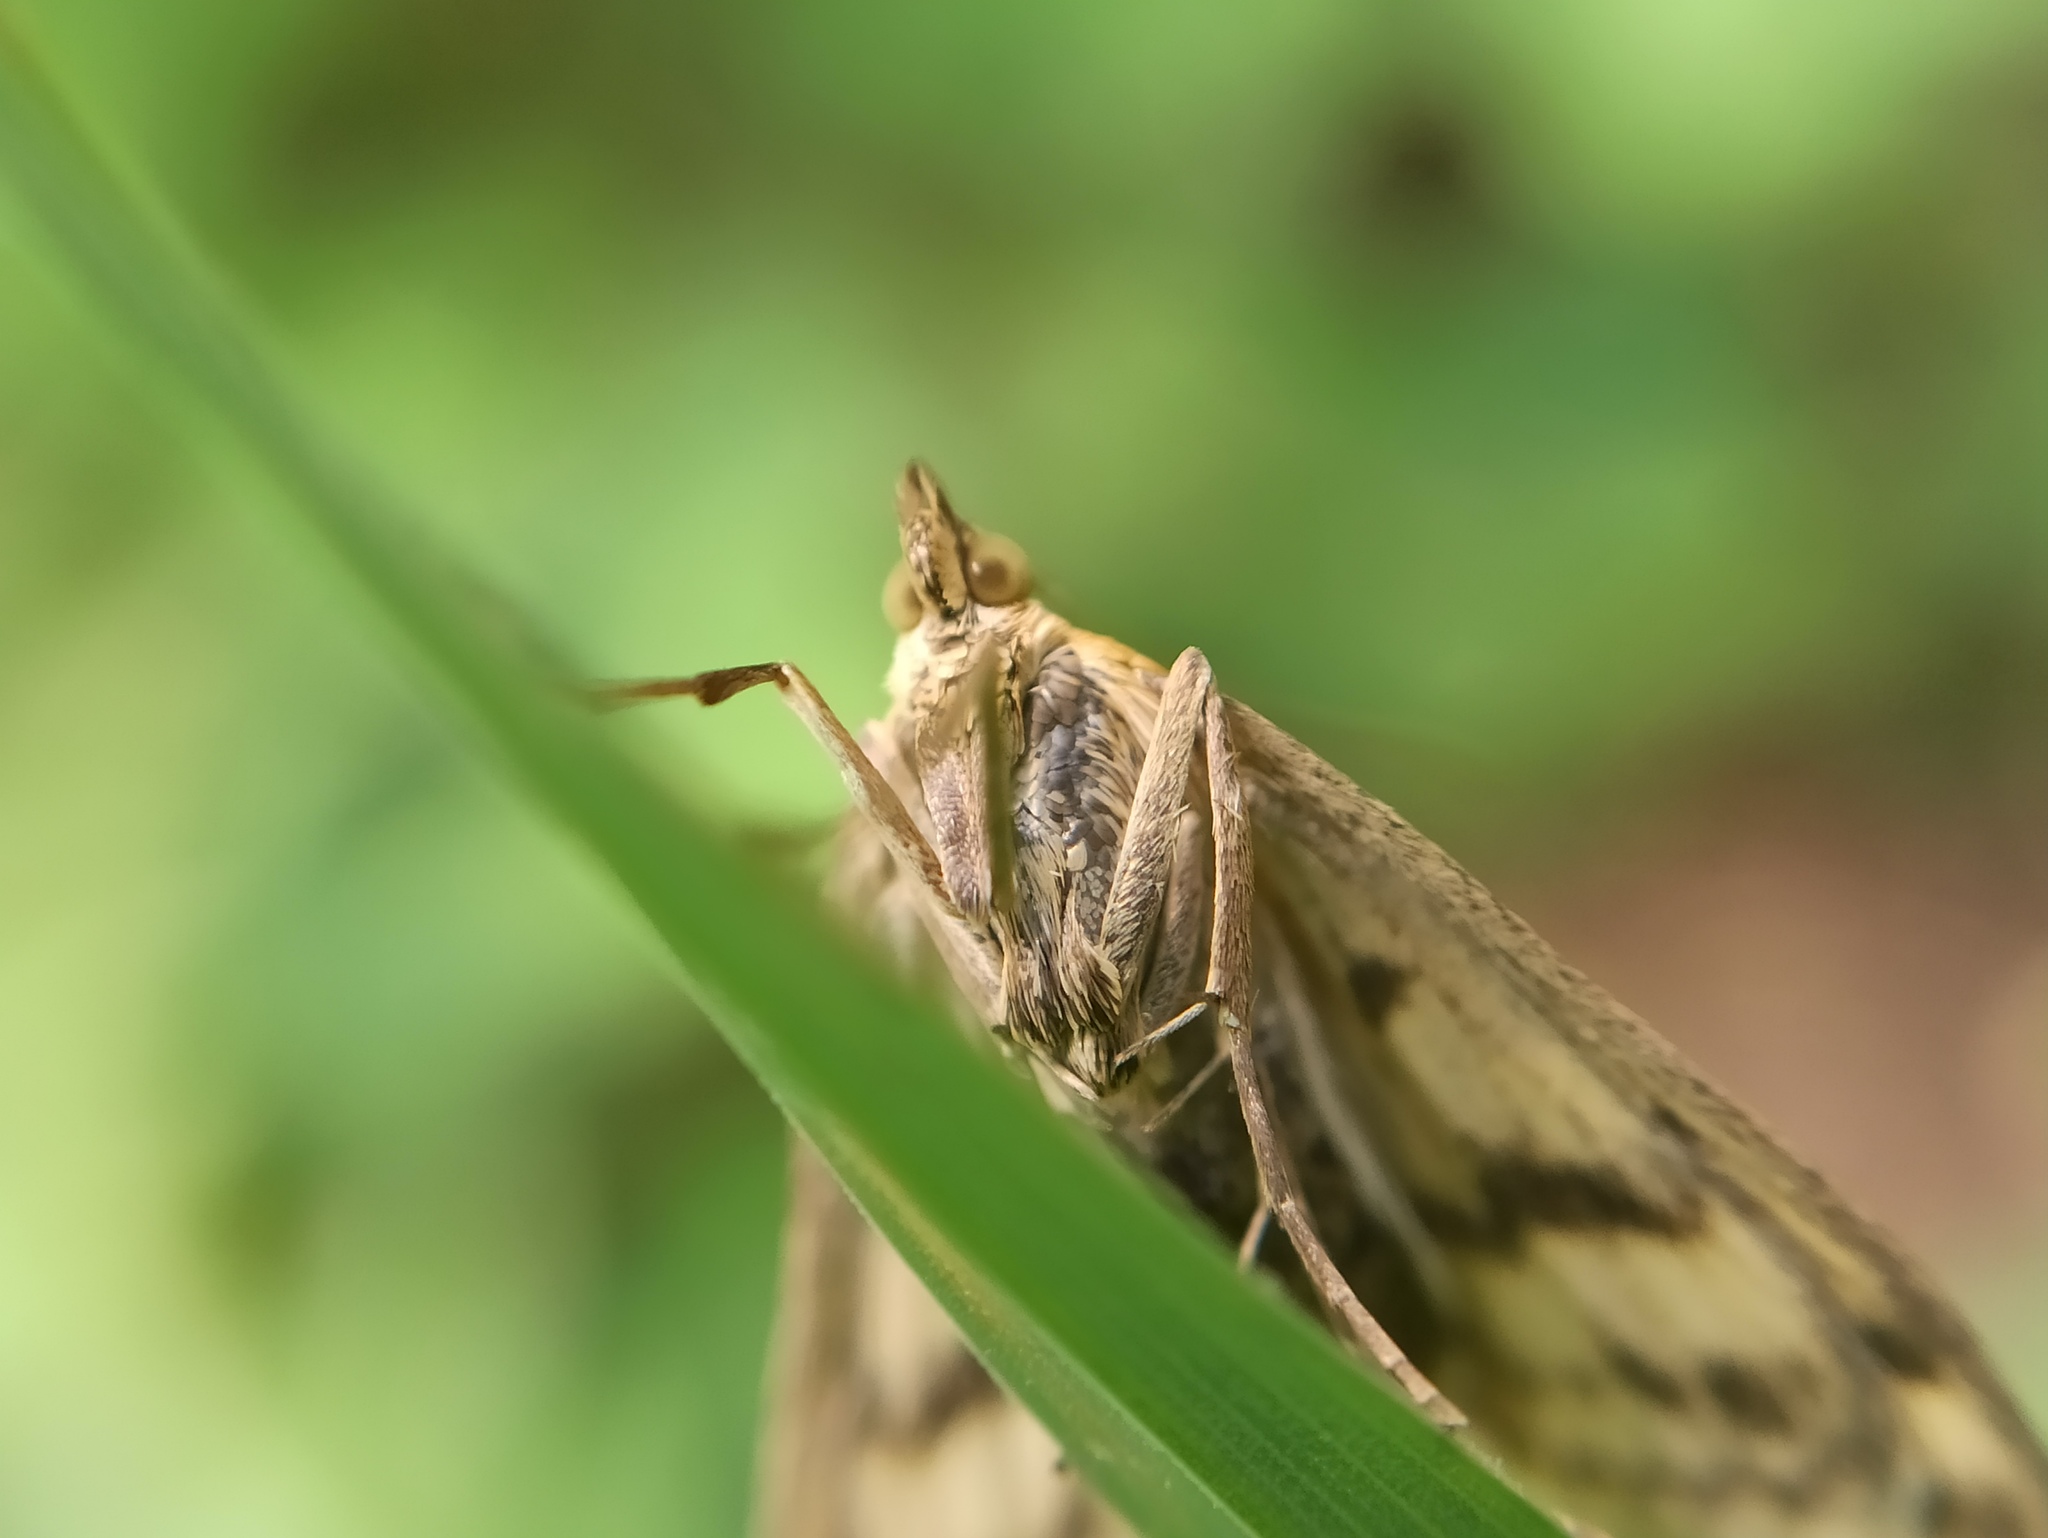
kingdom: Animalia
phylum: Arthropoda
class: Insecta
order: Lepidoptera
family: Crambidae
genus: Sitochroa
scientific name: Sitochroa verticalis
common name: Lesser pearl
